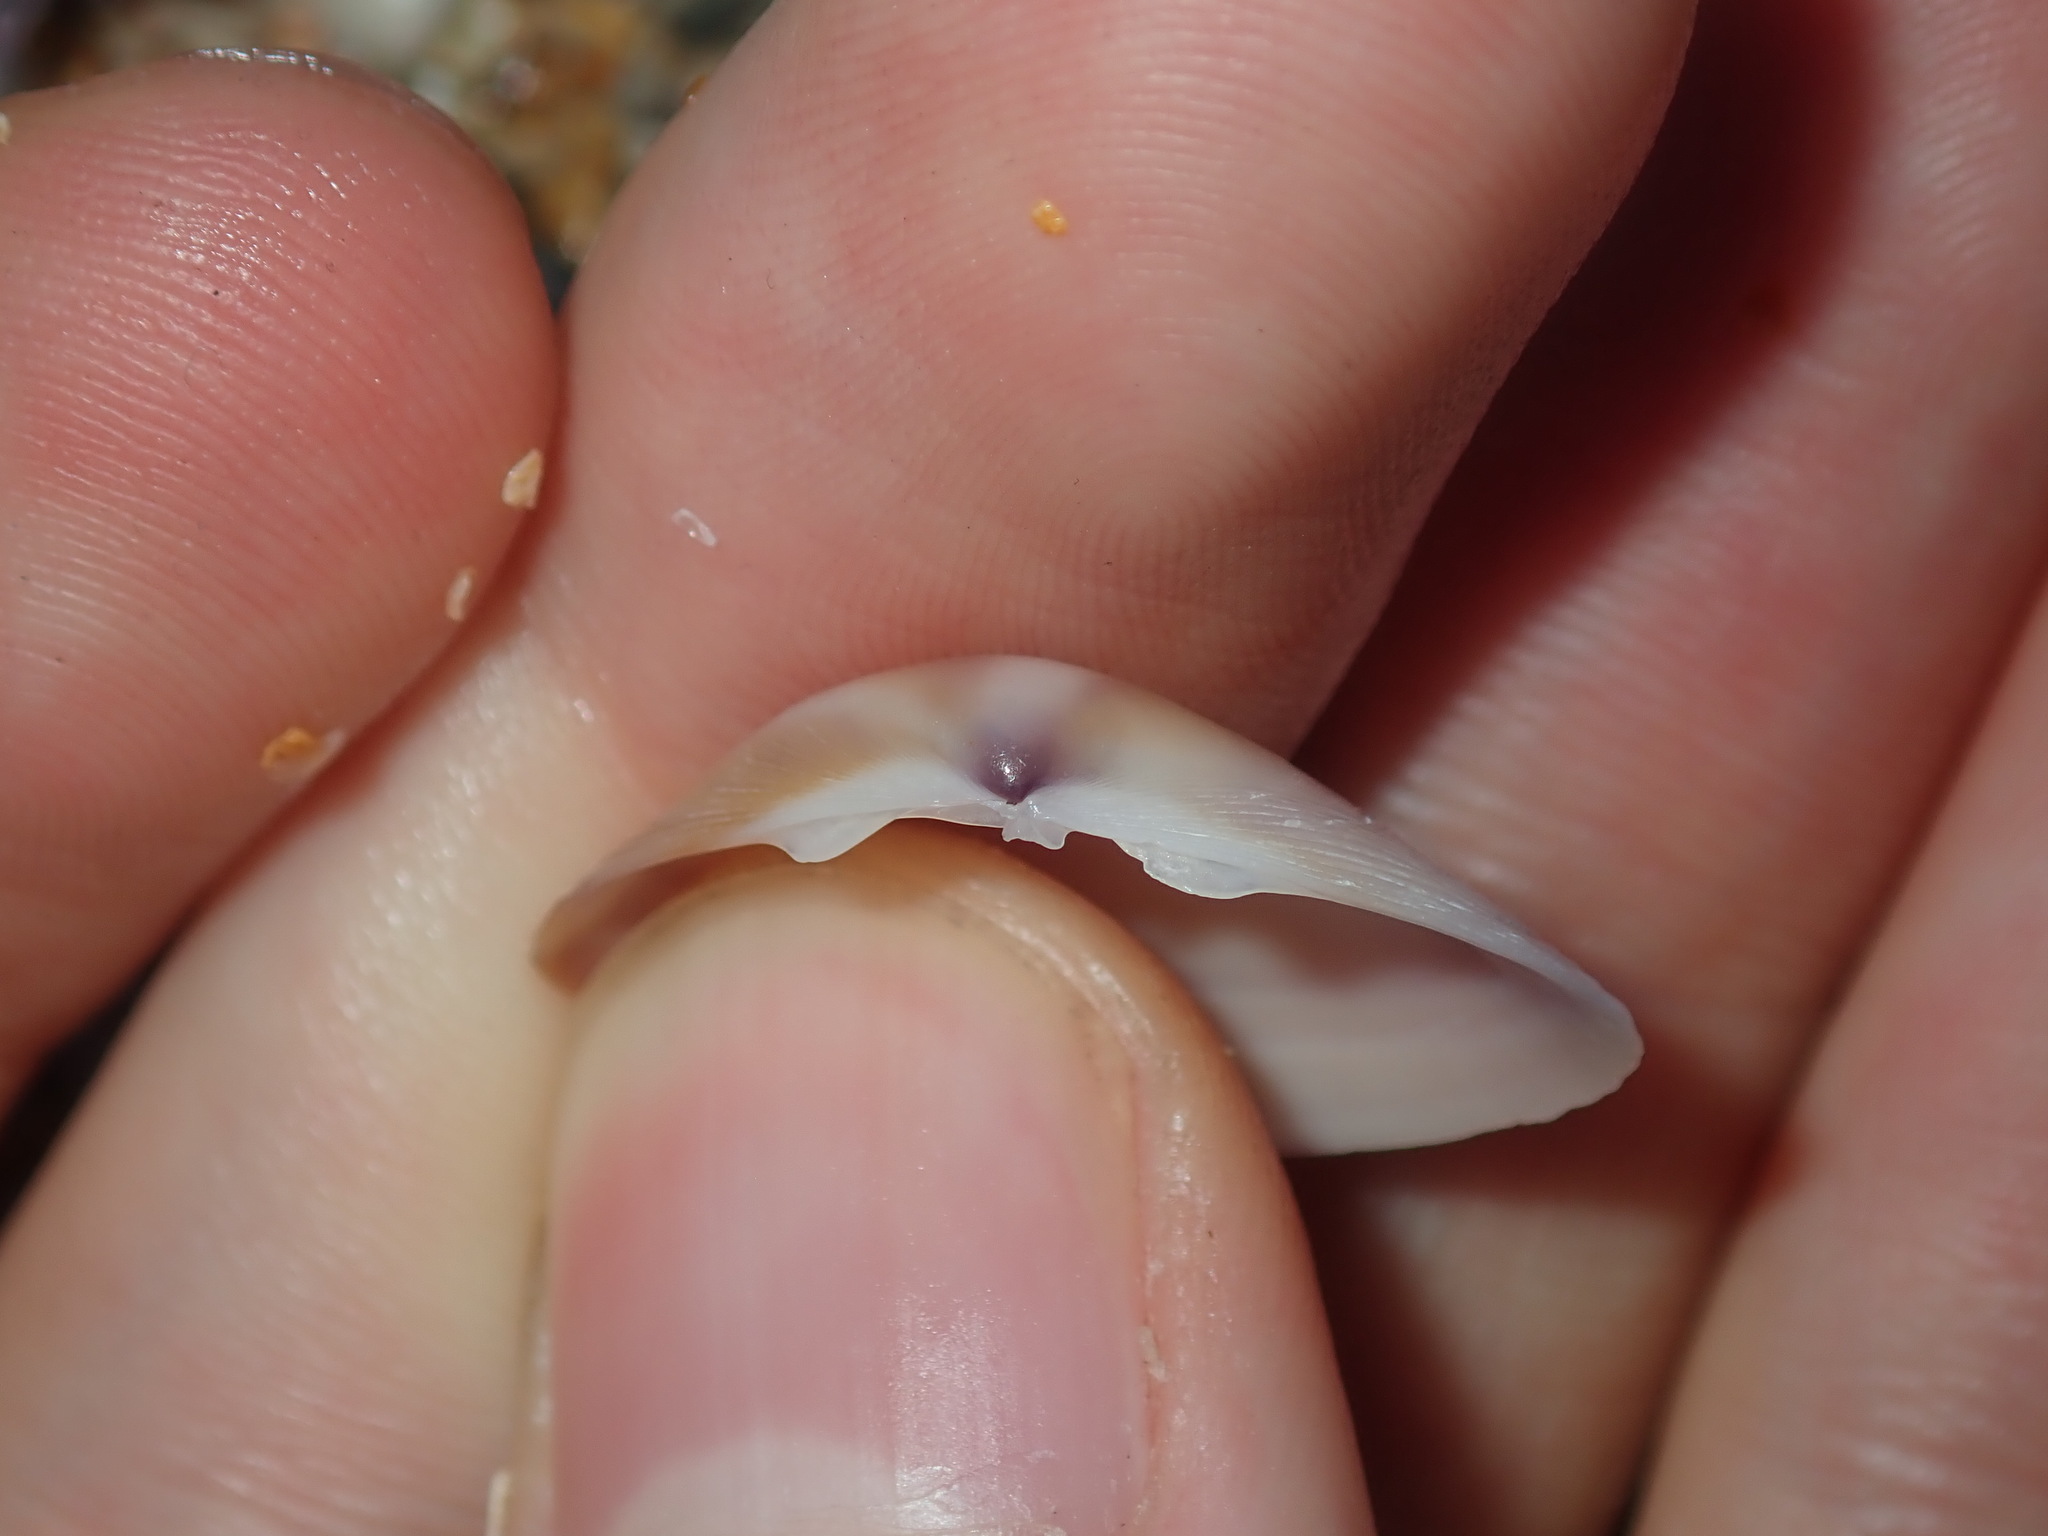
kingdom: Animalia
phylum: Mollusca
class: Bivalvia
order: Venerida
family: Mactridae
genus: Austromactra
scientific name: Austromactra rufescens
